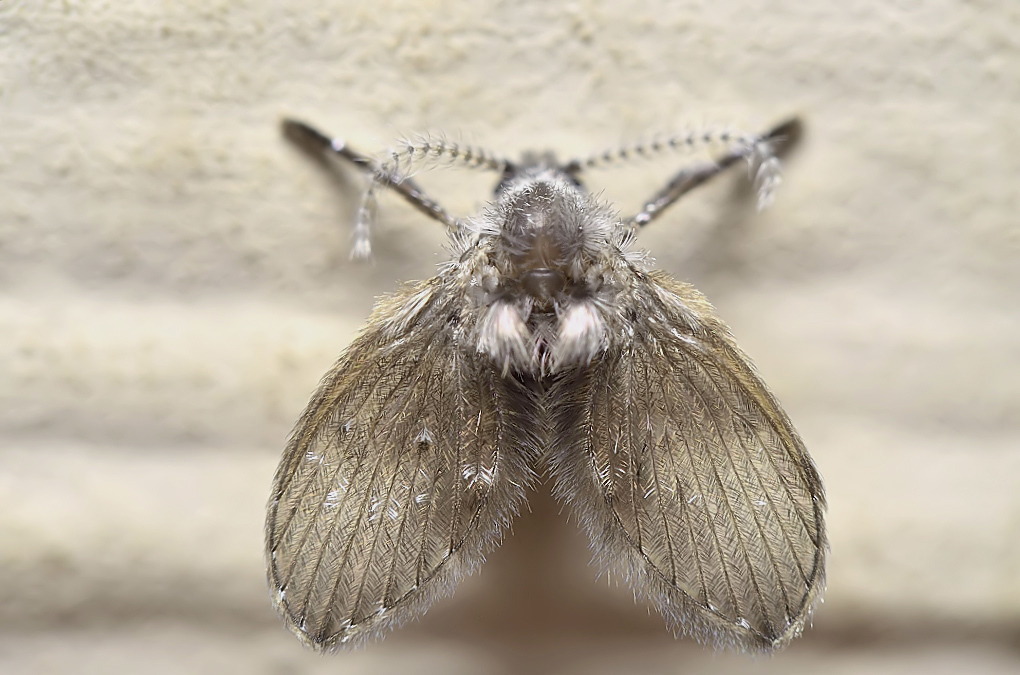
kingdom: Animalia
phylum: Arthropoda
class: Insecta
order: Diptera
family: Psychodidae
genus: Clogmia
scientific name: Clogmia albipunctatus
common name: White-spotted moth fly
